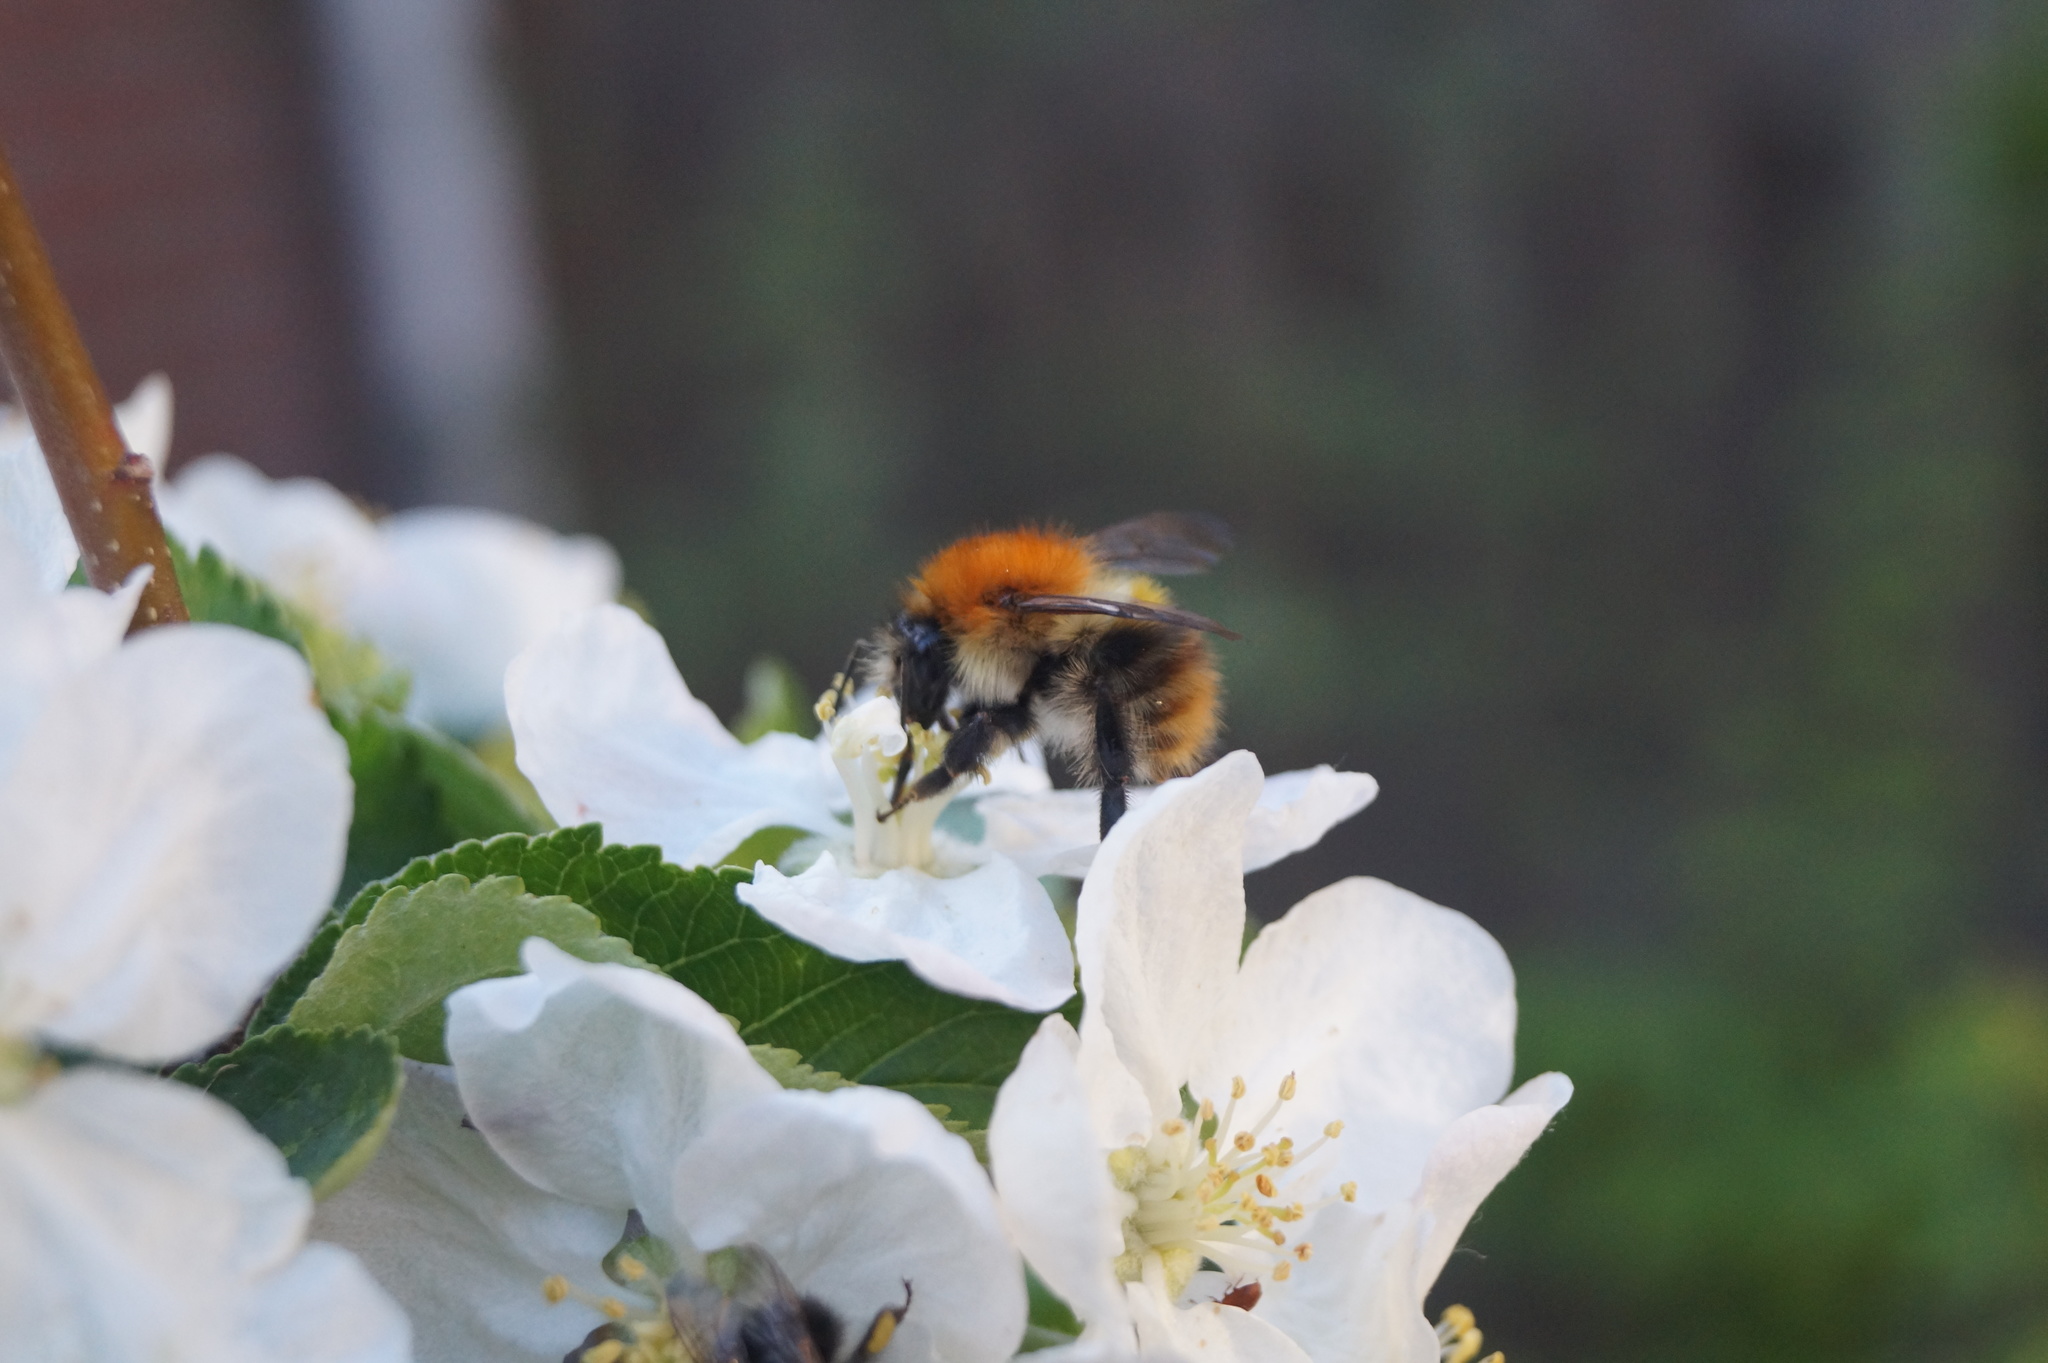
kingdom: Animalia
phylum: Arthropoda
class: Insecta
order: Hymenoptera
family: Apidae
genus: Bombus
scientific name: Bombus pascuorum
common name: Common carder bee
